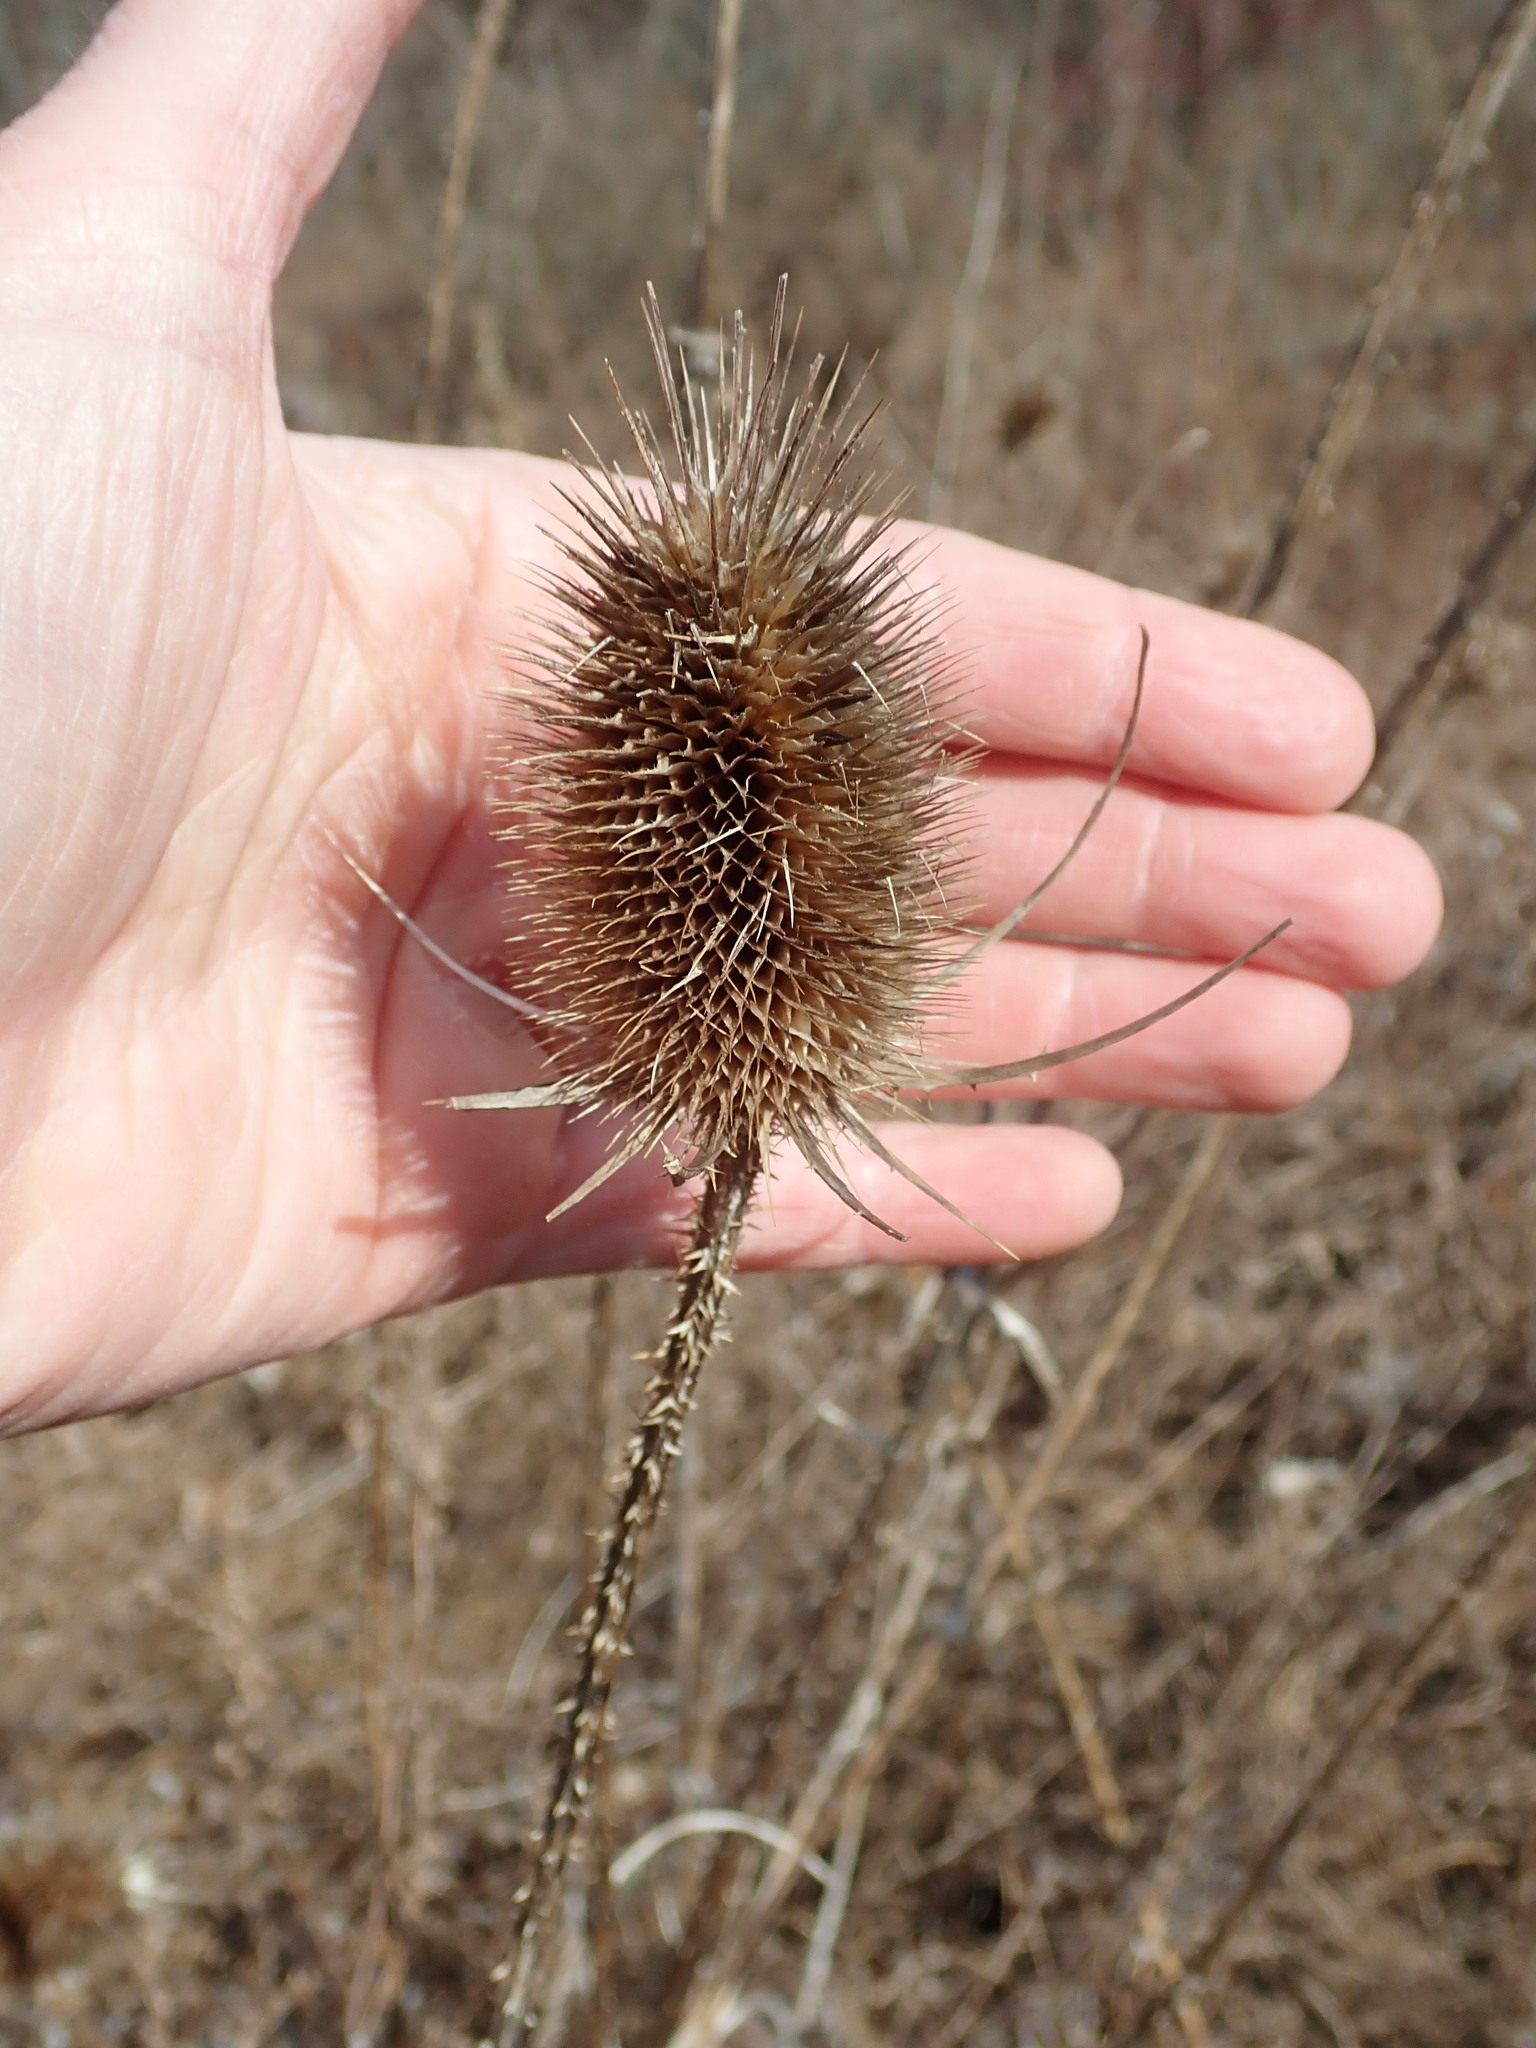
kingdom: Plantae
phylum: Tracheophyta
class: Magnoliopsida
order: Dipsacales
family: Caprifoliaceae
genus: Dipsacus
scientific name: Dipsacus fullonum
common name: Teasel
